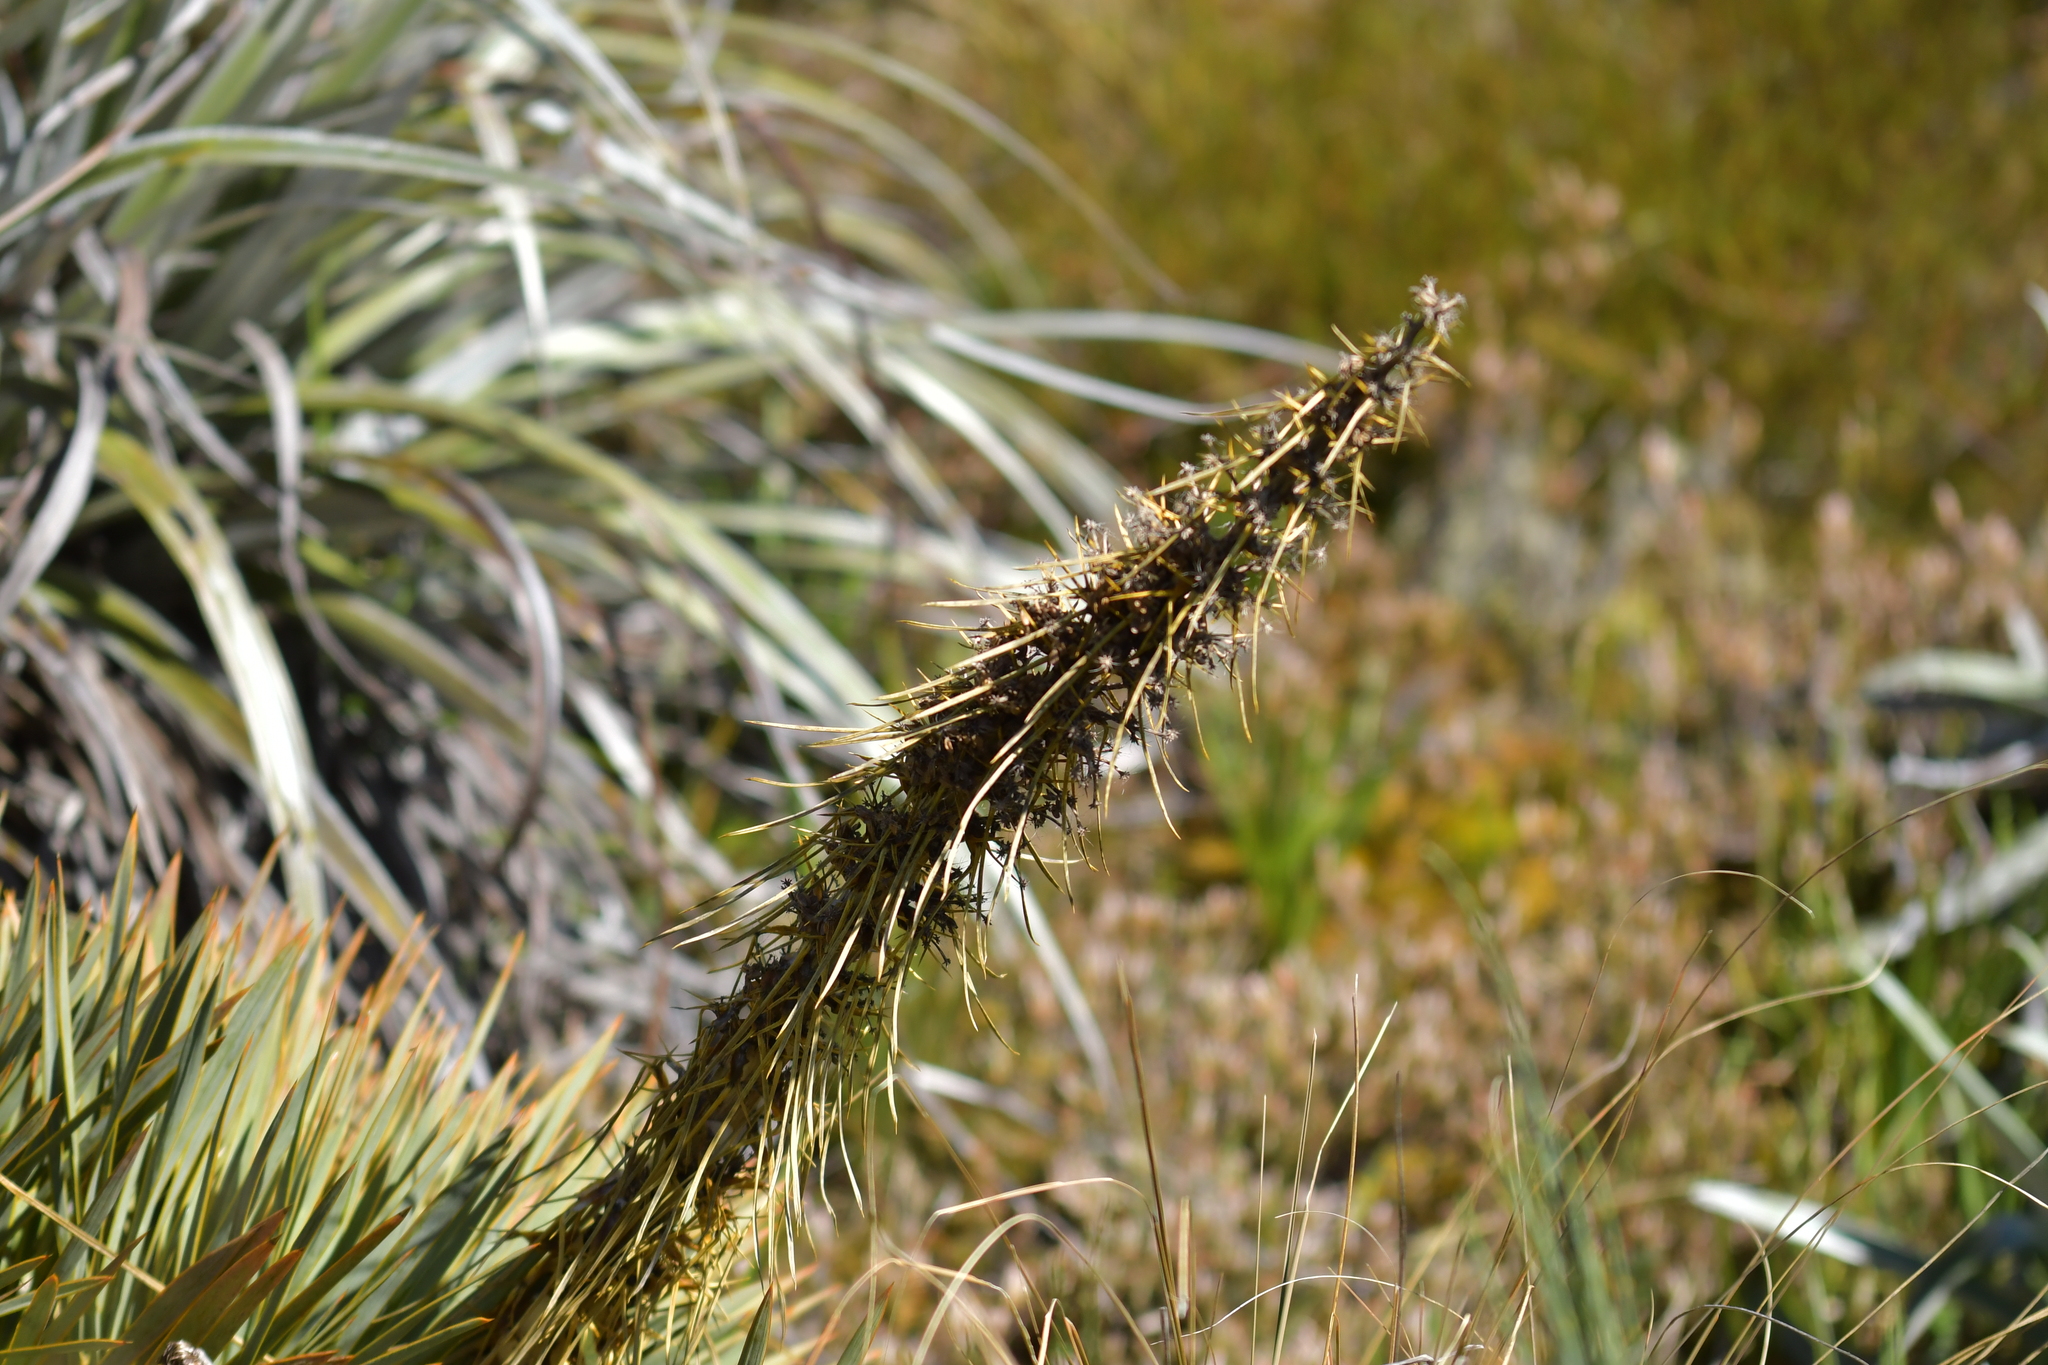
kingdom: Plantae
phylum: Tracheophyta
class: Magnoliopsida
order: Apiales
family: Apiaceae
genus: Aciphylla
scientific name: Aciphylla aurea
